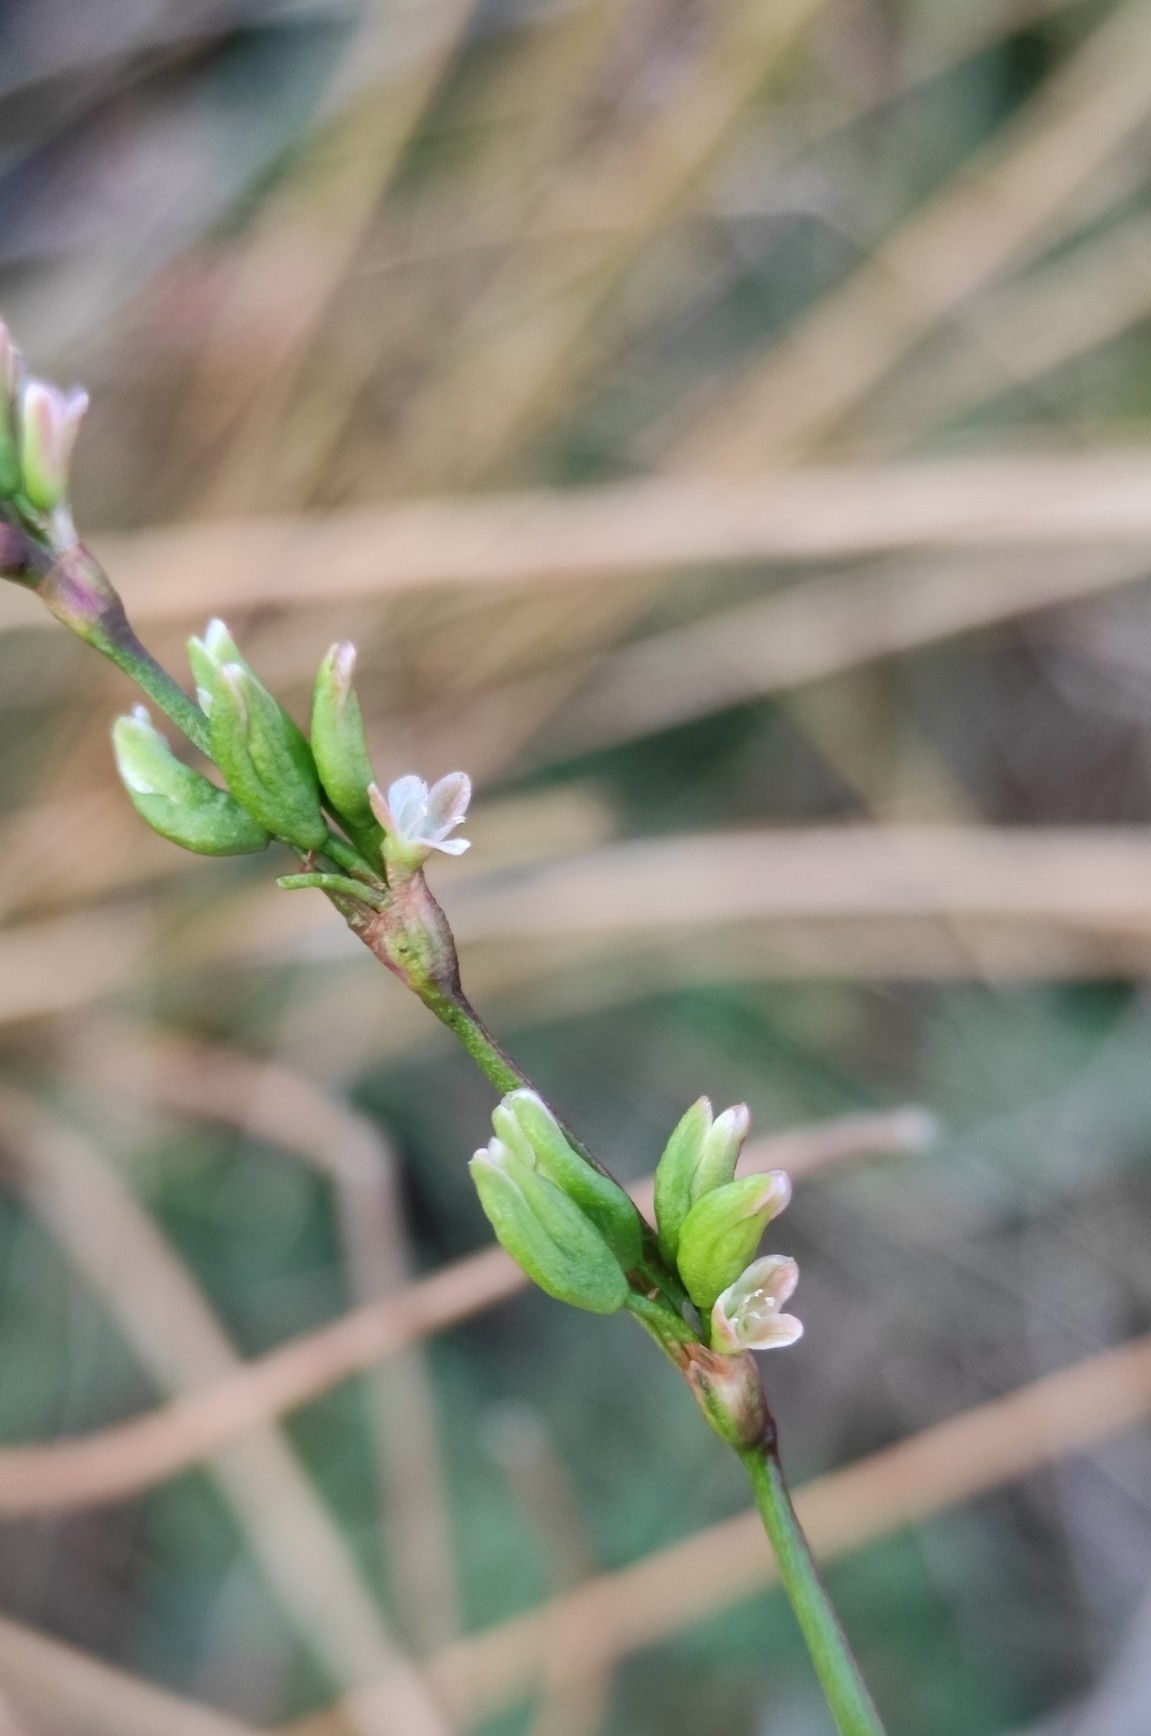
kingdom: Plantae
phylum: Tracheophyta
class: Magnoliopsida
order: Caryophyllales
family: Polygonaceae
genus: Persicaria
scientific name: Persicaria hydropiper
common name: Water-pepper
